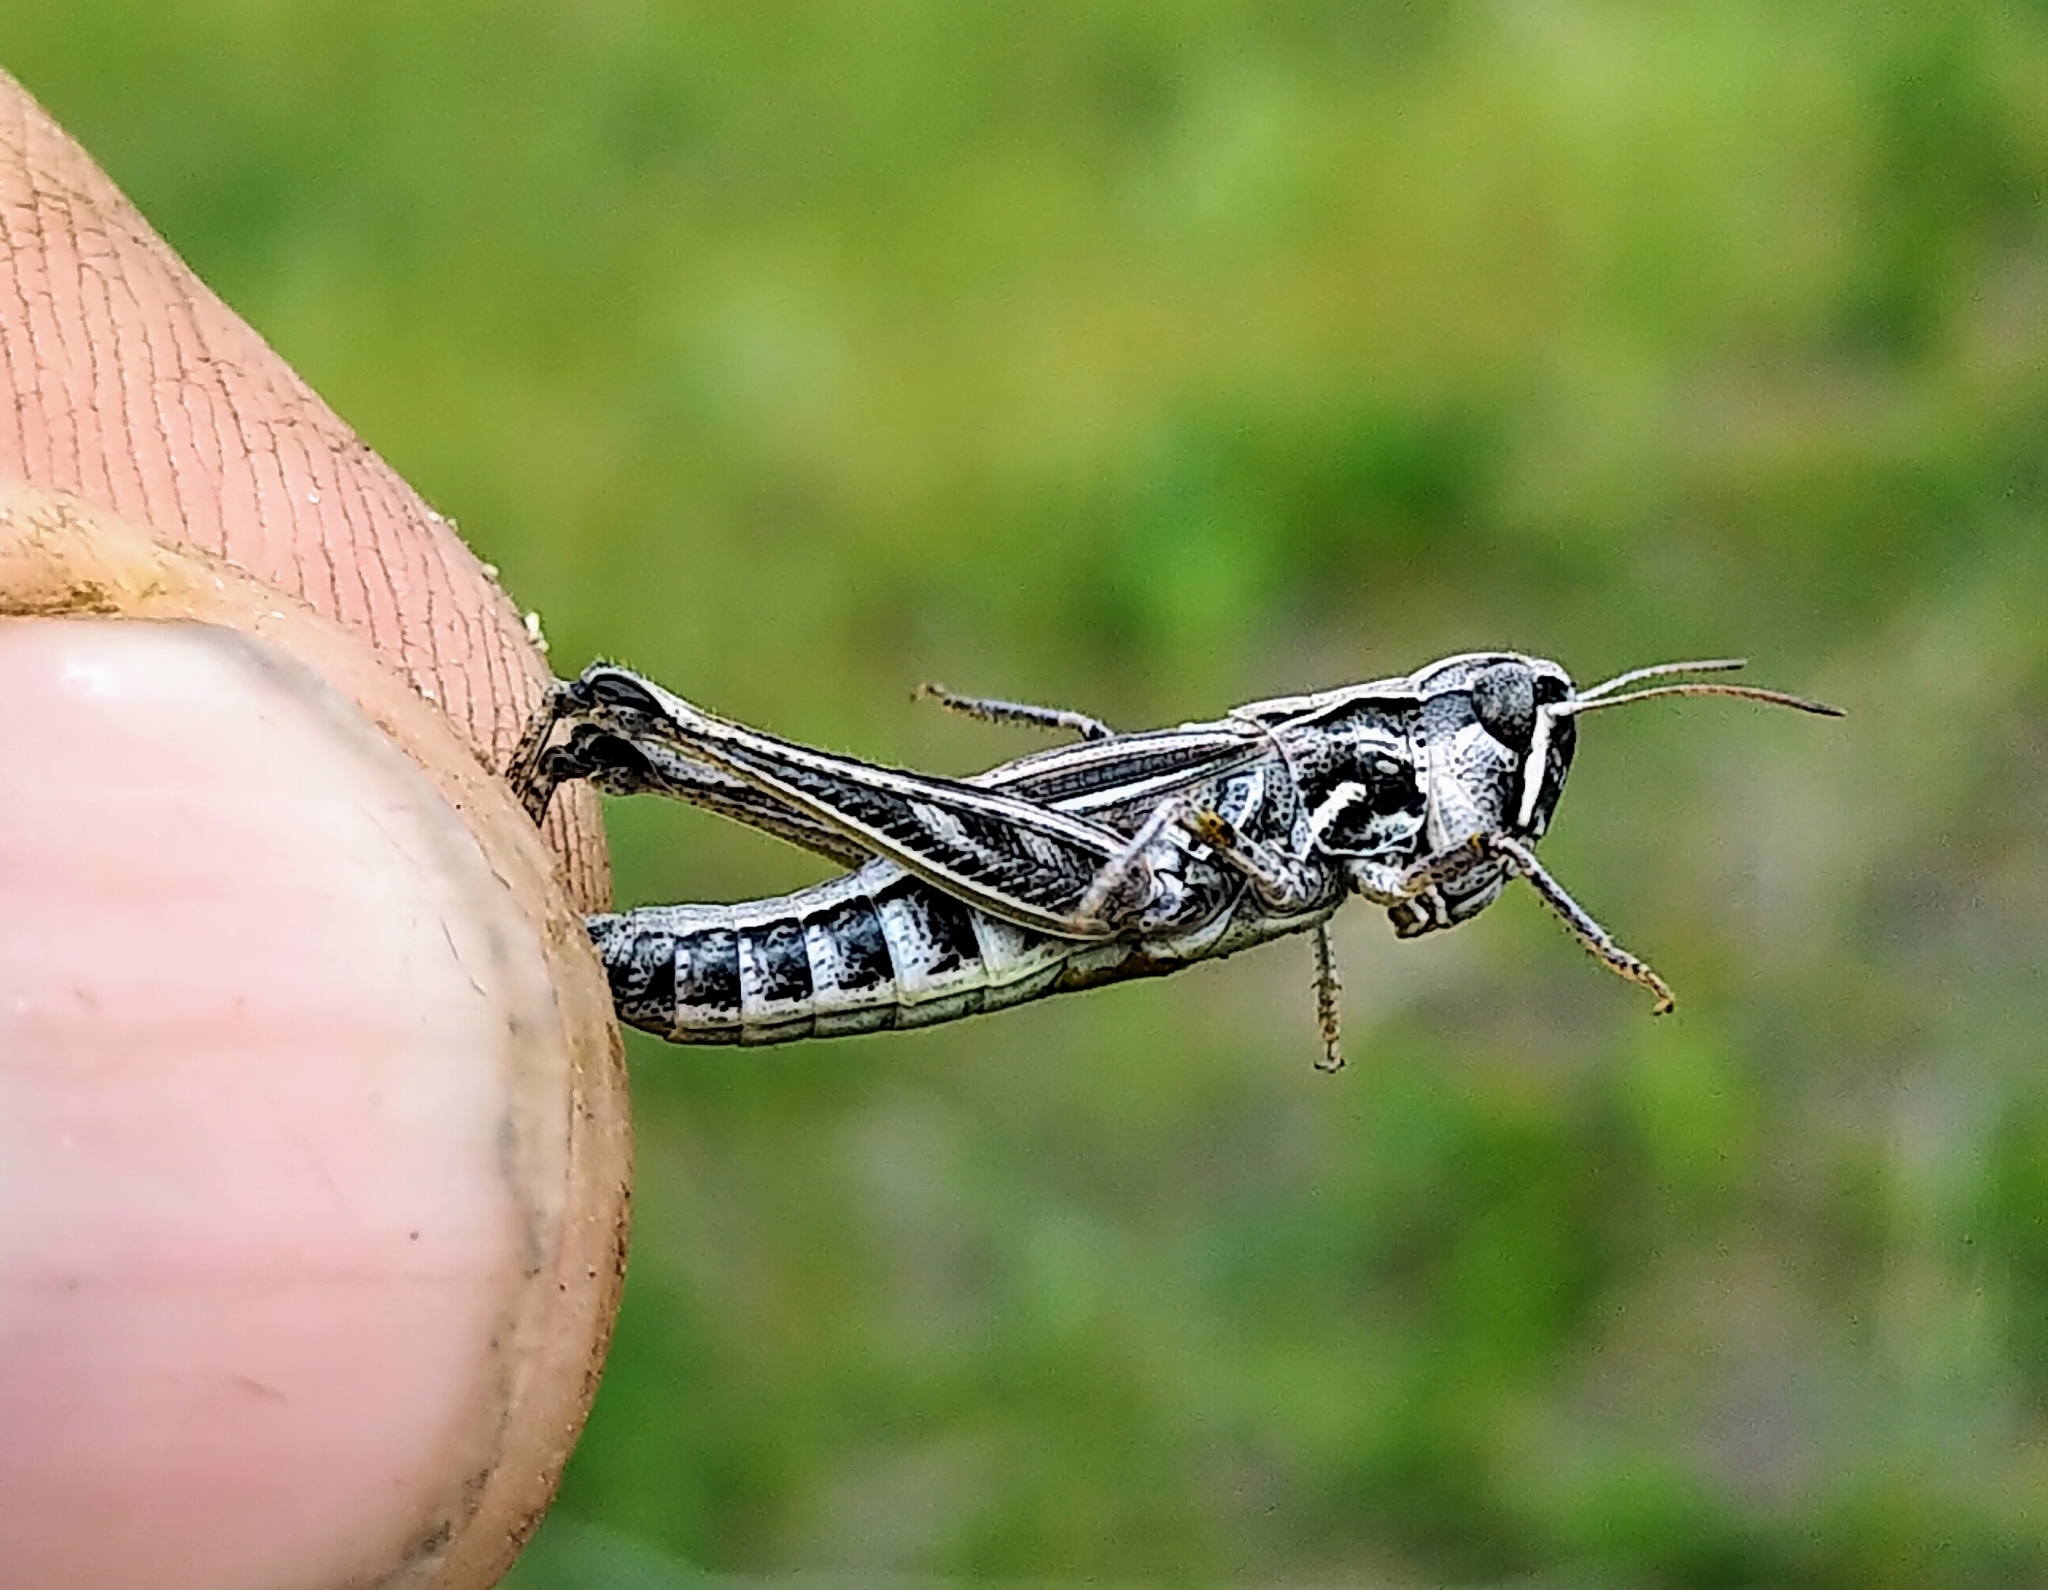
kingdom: Animalia
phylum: Arthropoda
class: Insecta
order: Orthoptera
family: Acrididae
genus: Aeropedellus
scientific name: Aeropedellus clavatus
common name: Clubhorned grasshopper
